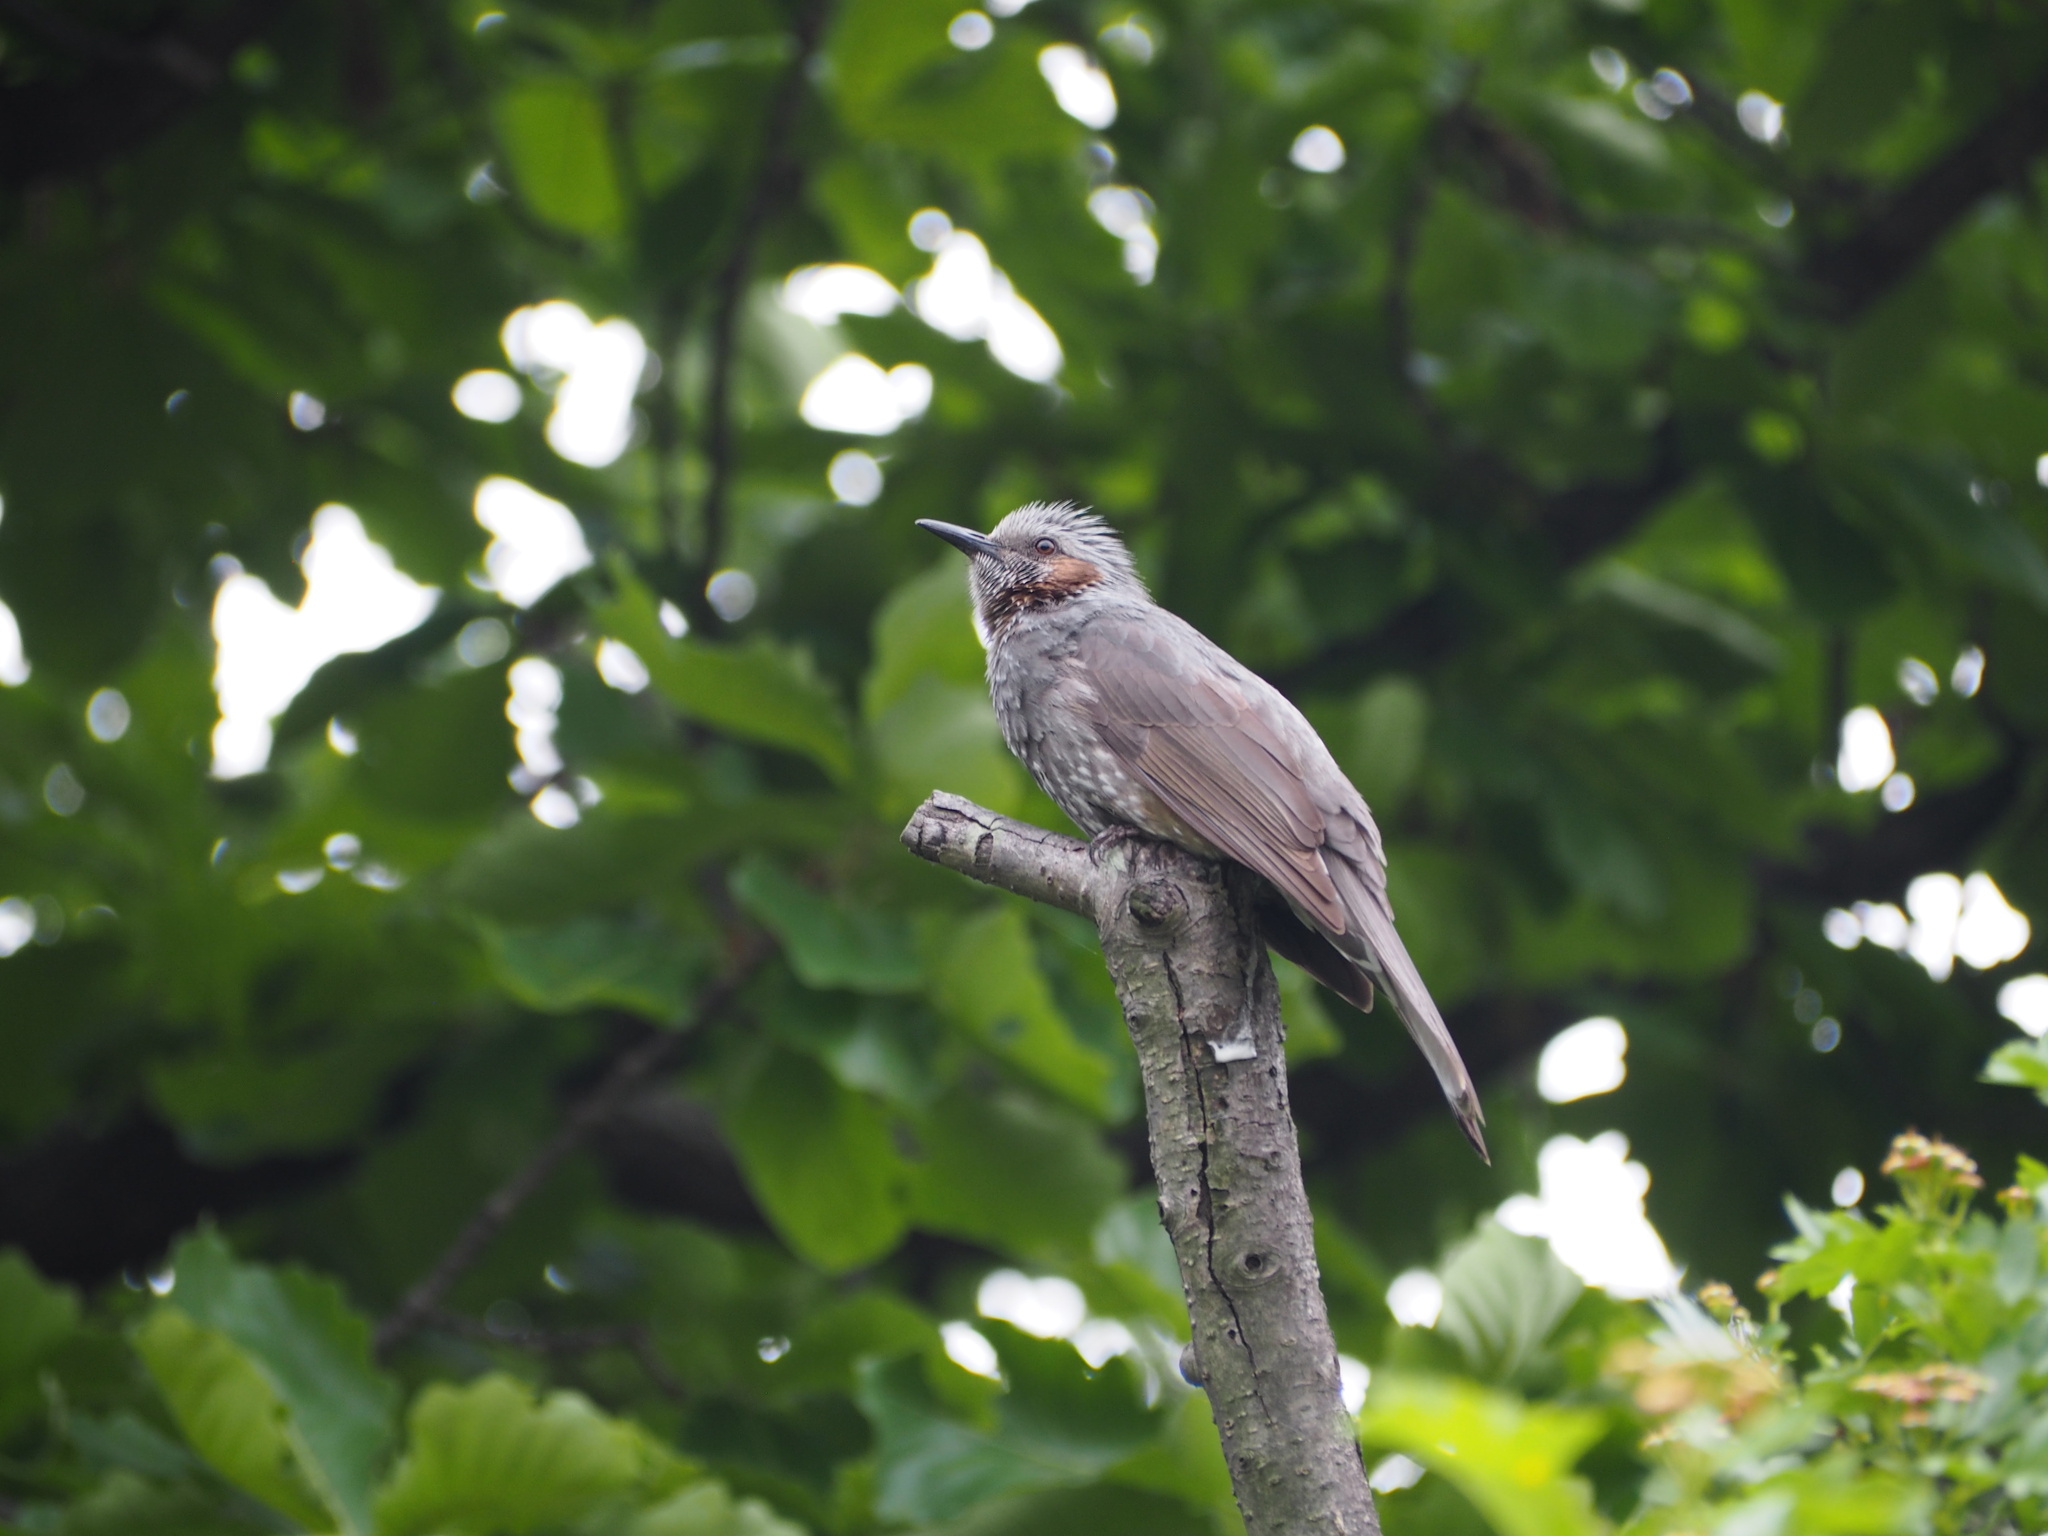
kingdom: Animalia
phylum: Chordata
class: Aves
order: Passeriformes
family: Pycnonotidae
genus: Hypsipetes
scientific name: Hypsipetes amaurotis
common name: Brown-eared bulbul
